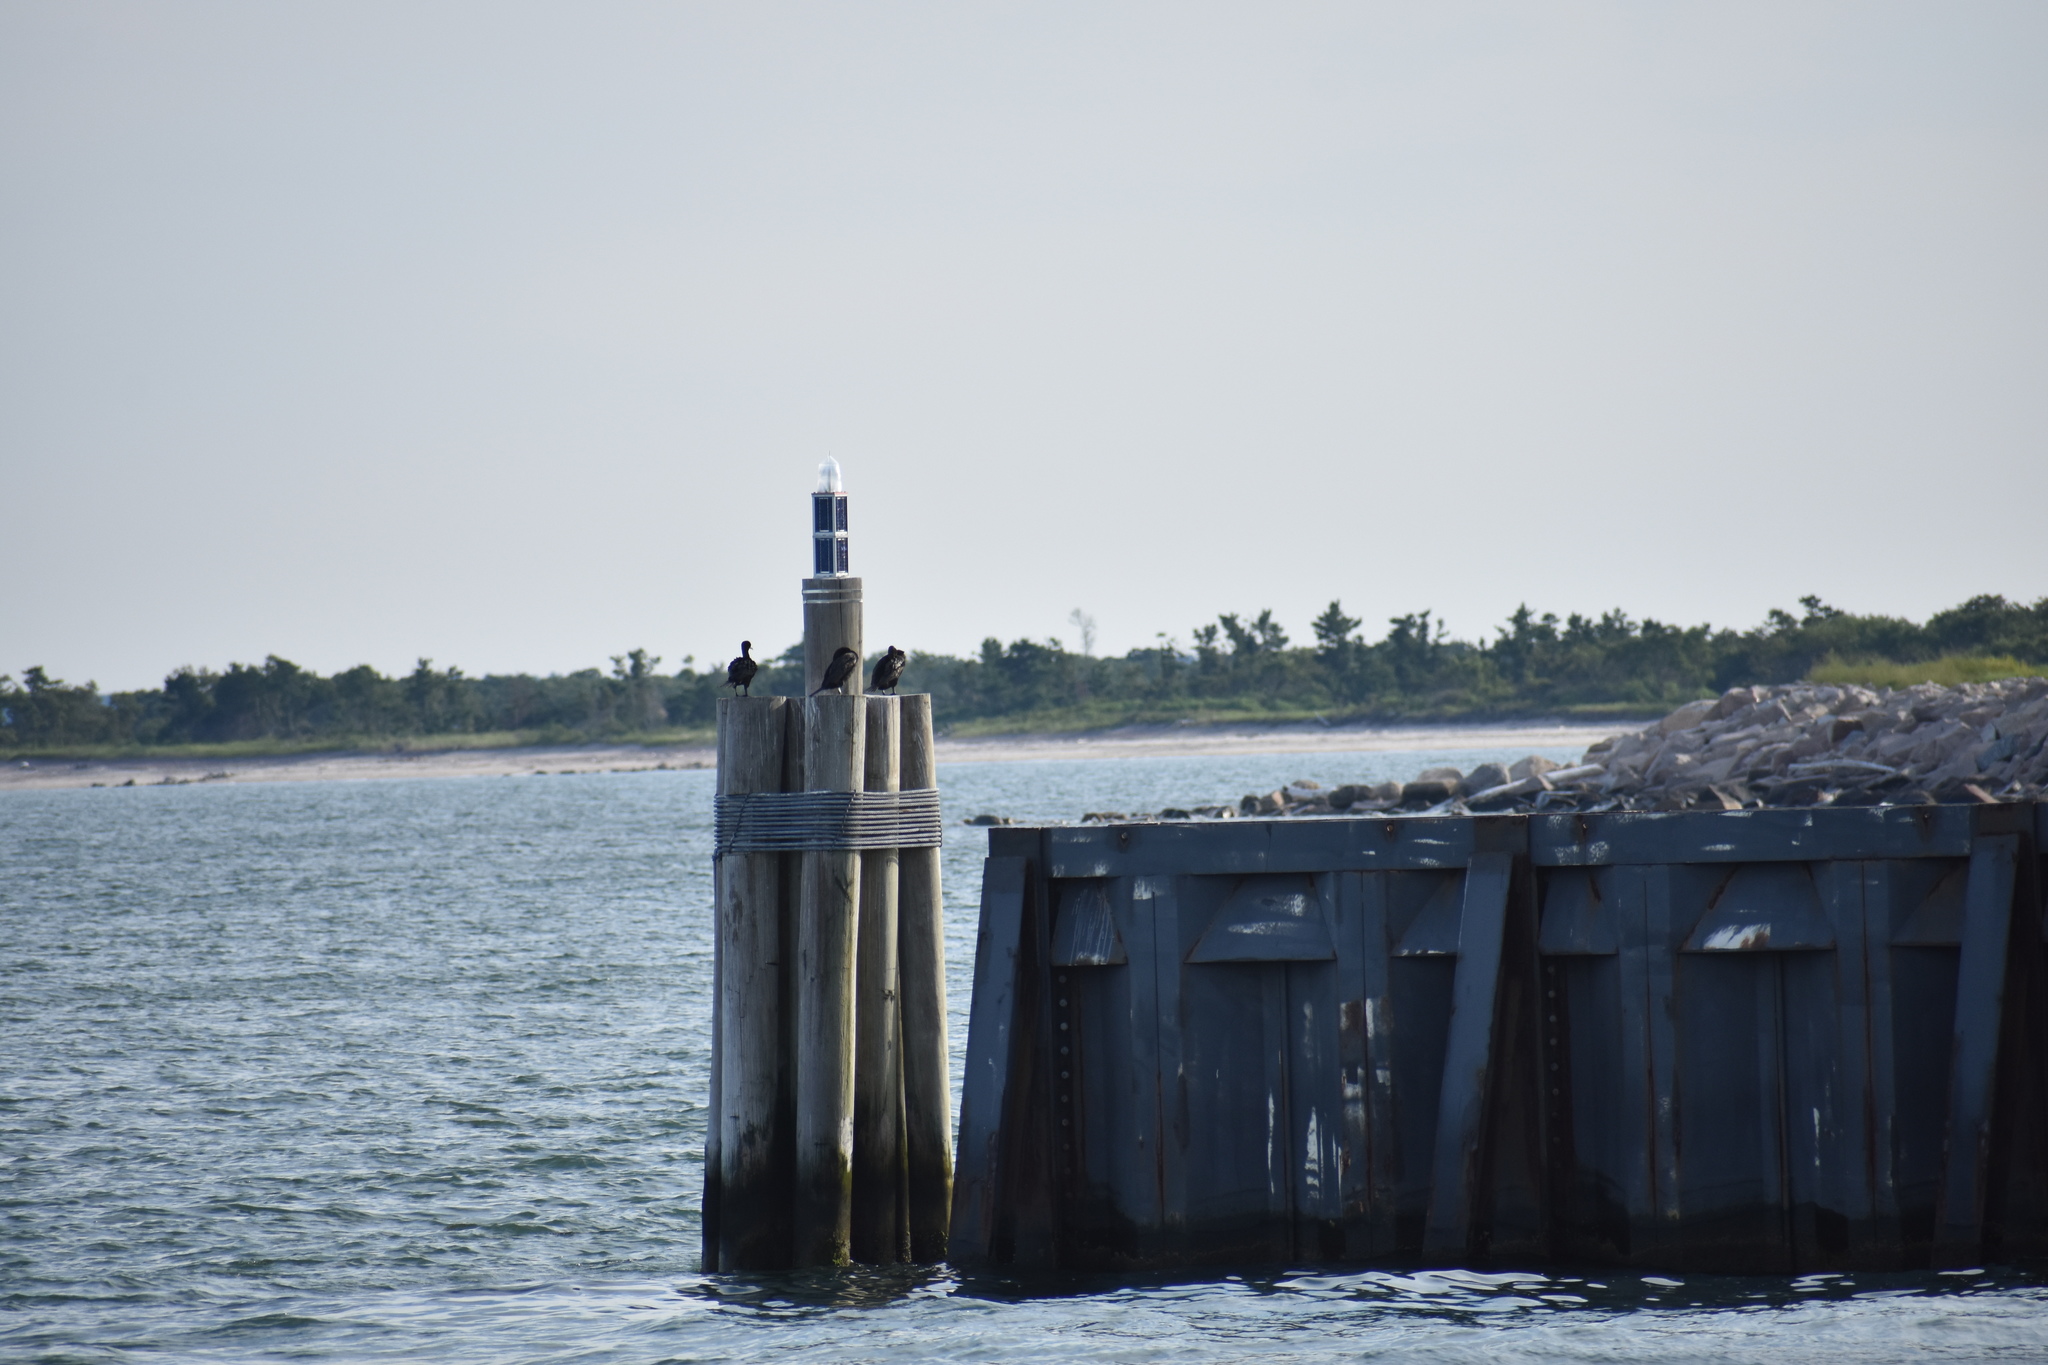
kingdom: Animalia
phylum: Chordata
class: Aves
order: Suliformes
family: Phalacrocoracidae
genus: Phalacrocorax
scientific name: Phalacrocorax auritus
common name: Double-crested cormorant
